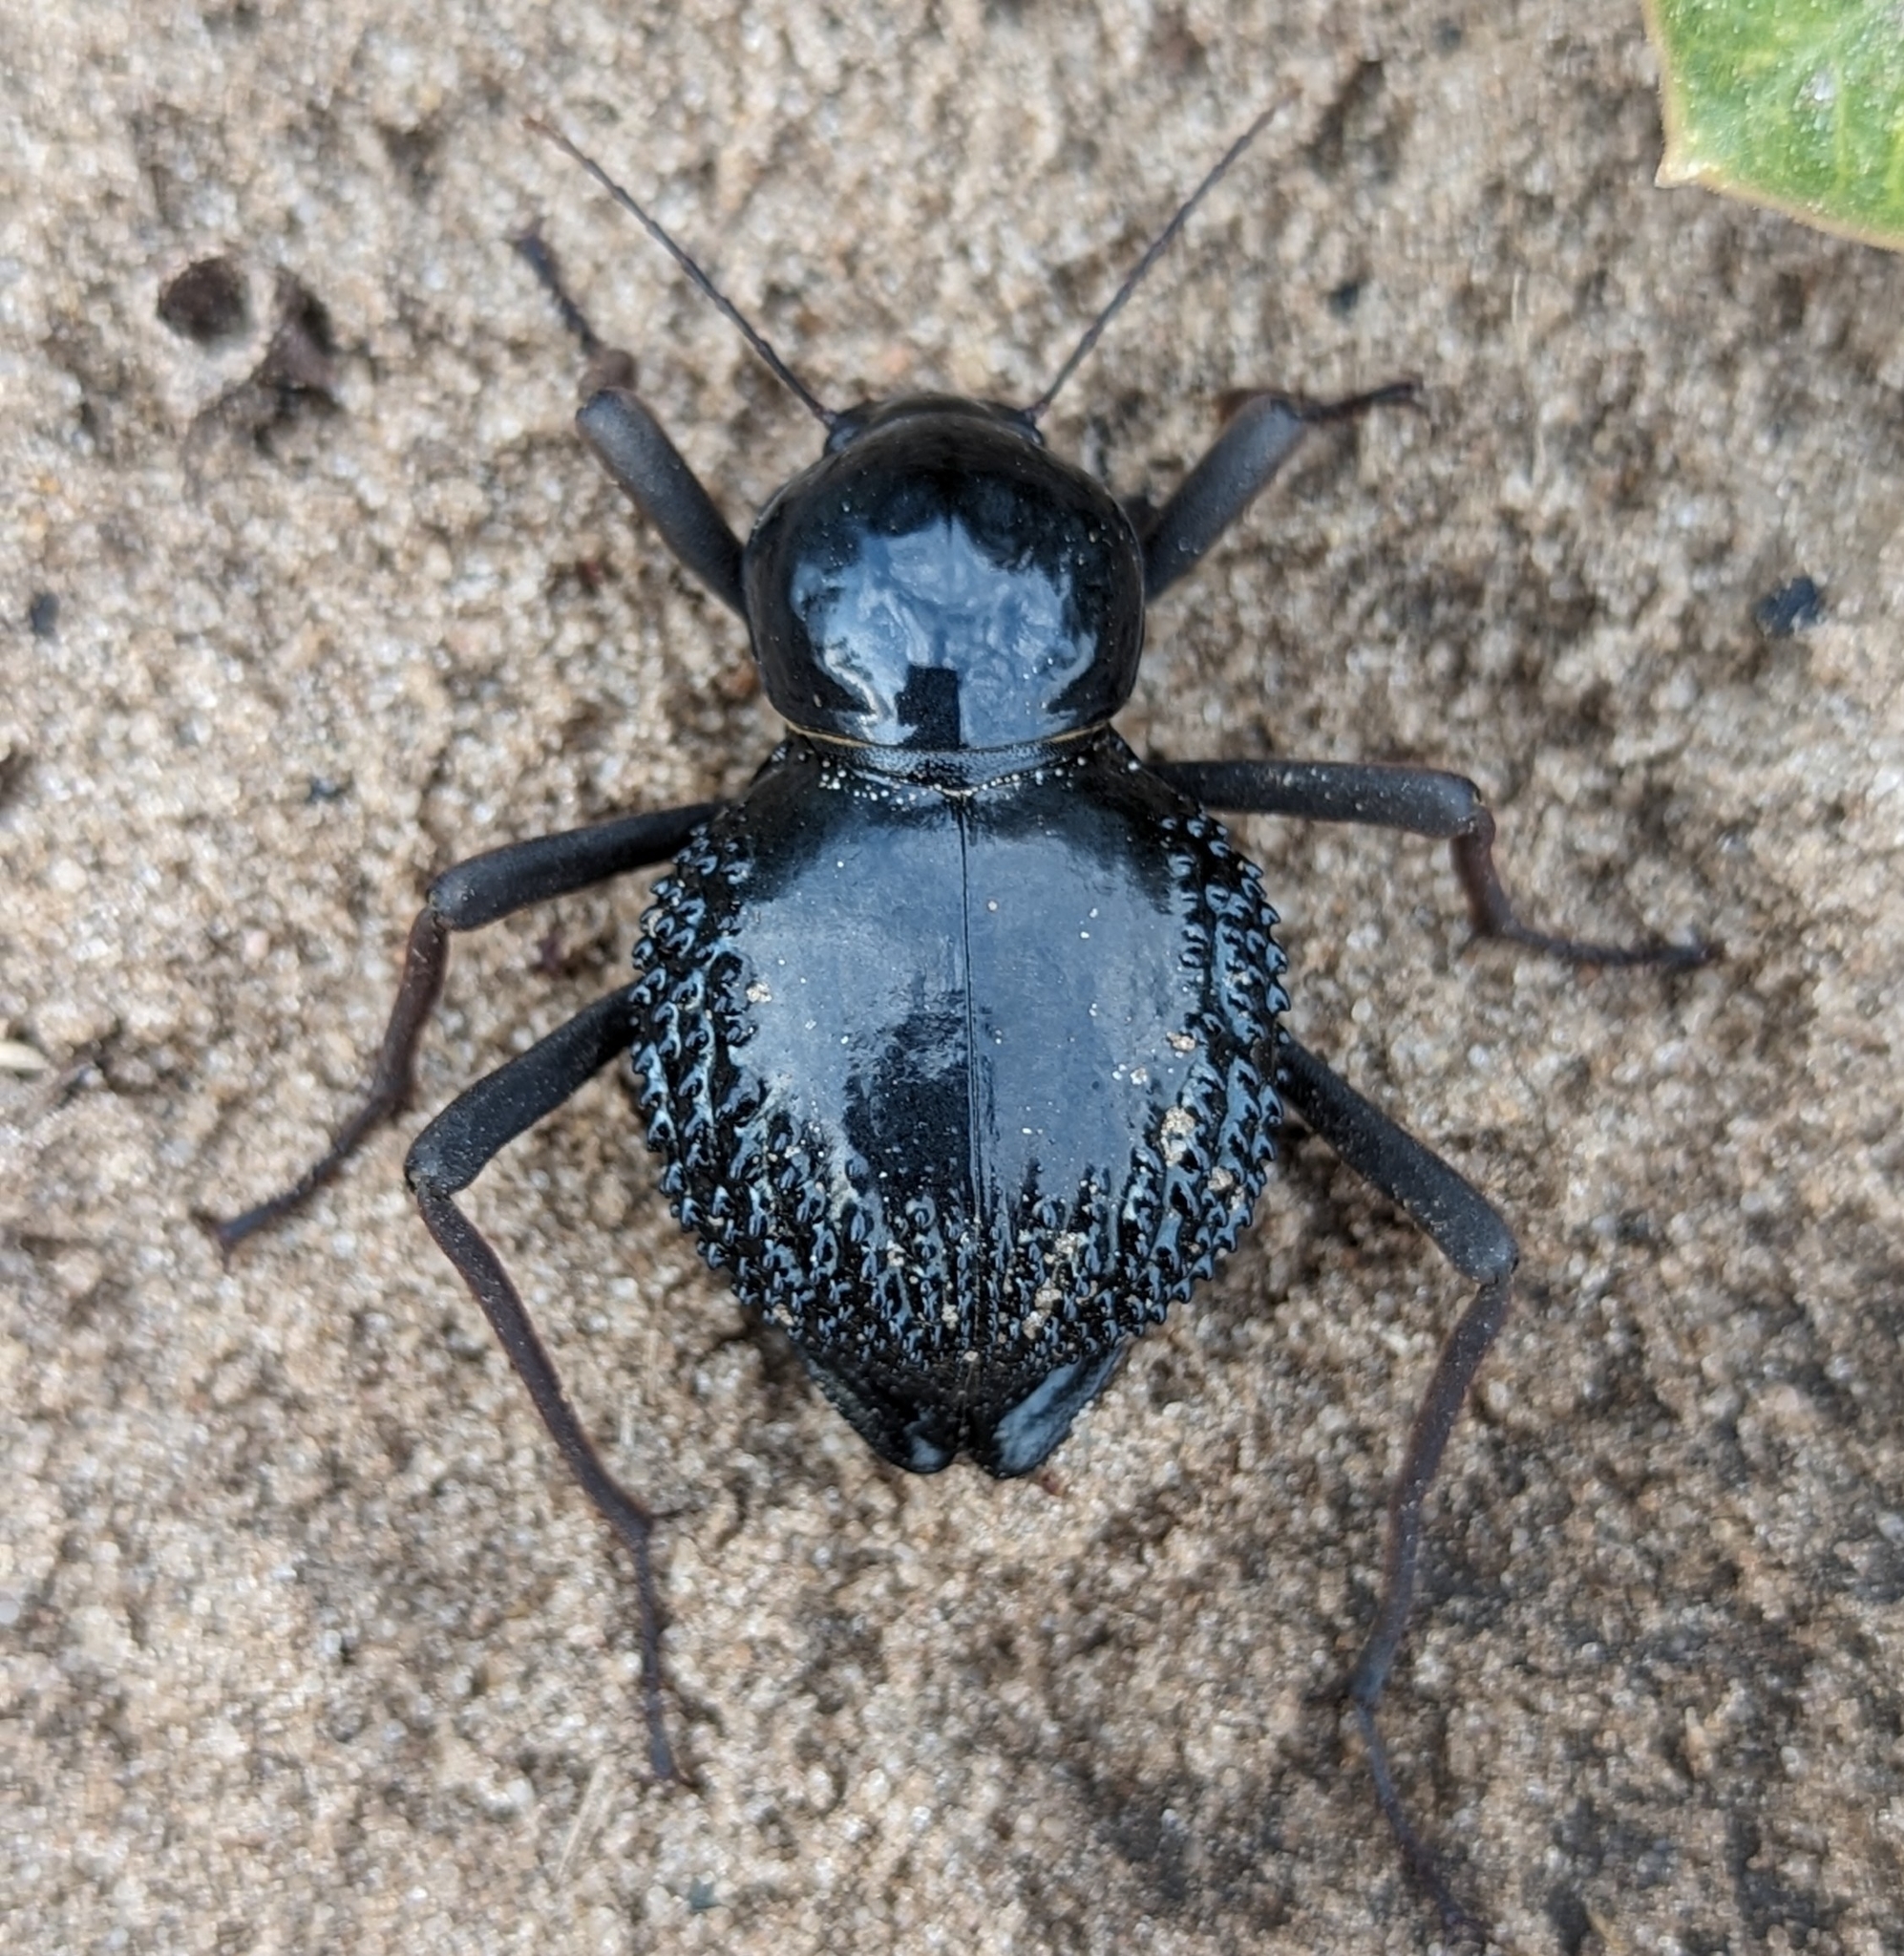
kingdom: Animalia
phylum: Arthropoda
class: Insecta
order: Coleoptera
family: Tenebrionidae
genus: Psammodes
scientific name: Psammodes vialis
